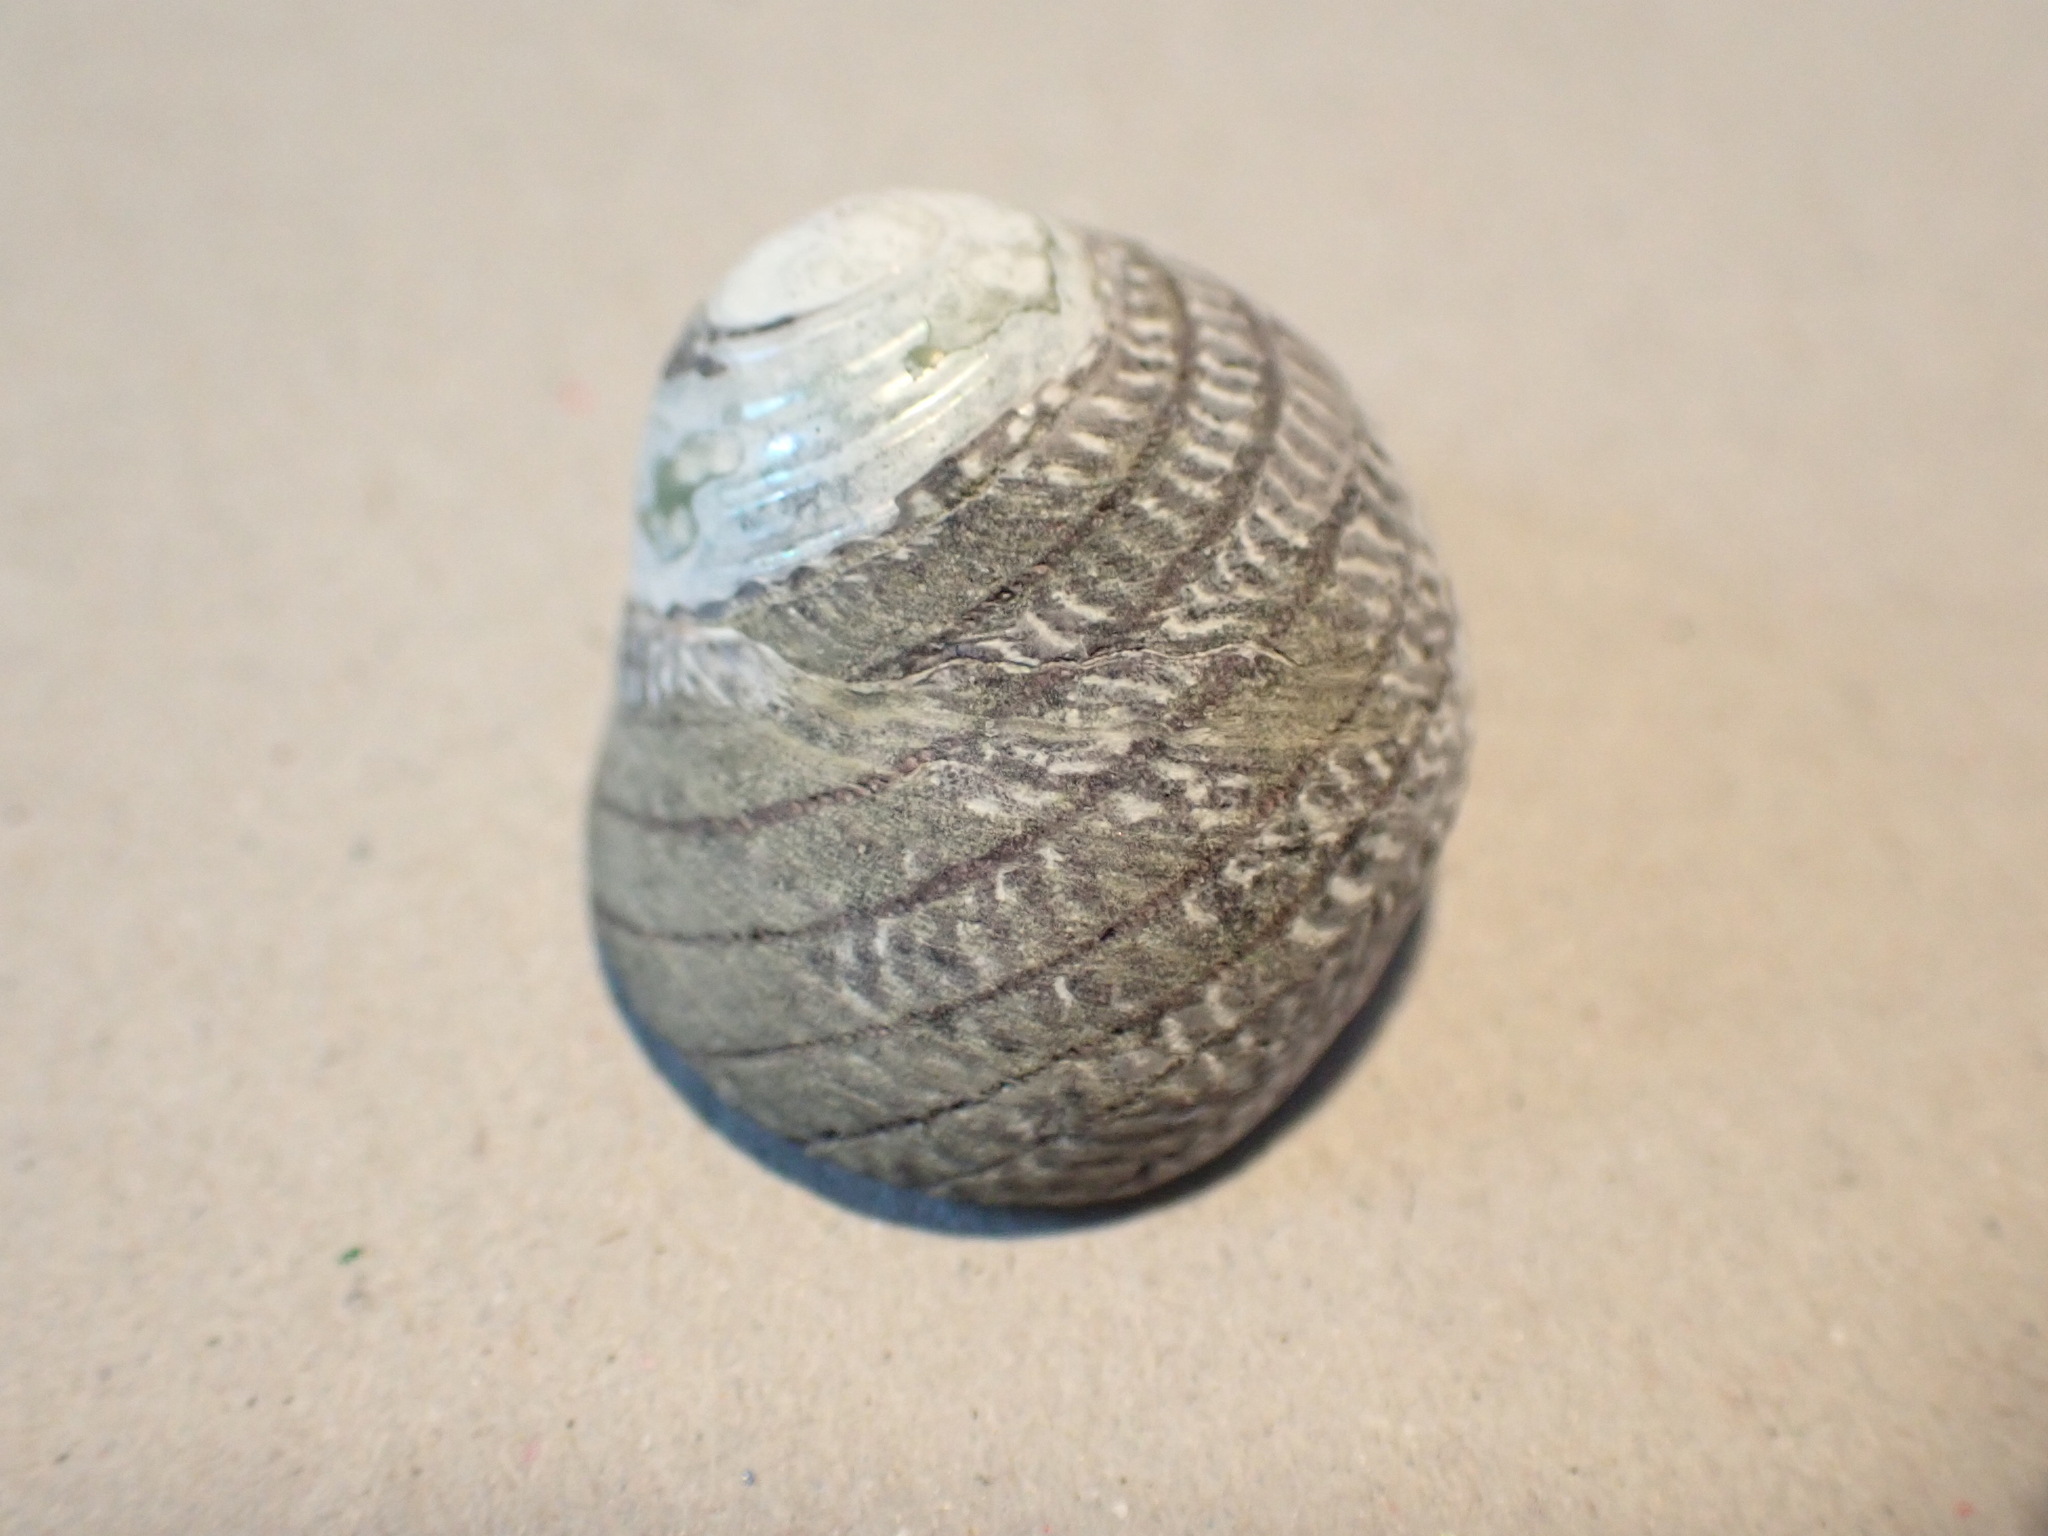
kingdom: Animalia
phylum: Mollusca
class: Gastropoda
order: Trochida
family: Trochidae
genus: Diloma
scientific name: Diloma aethiops
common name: Scorched monodont
